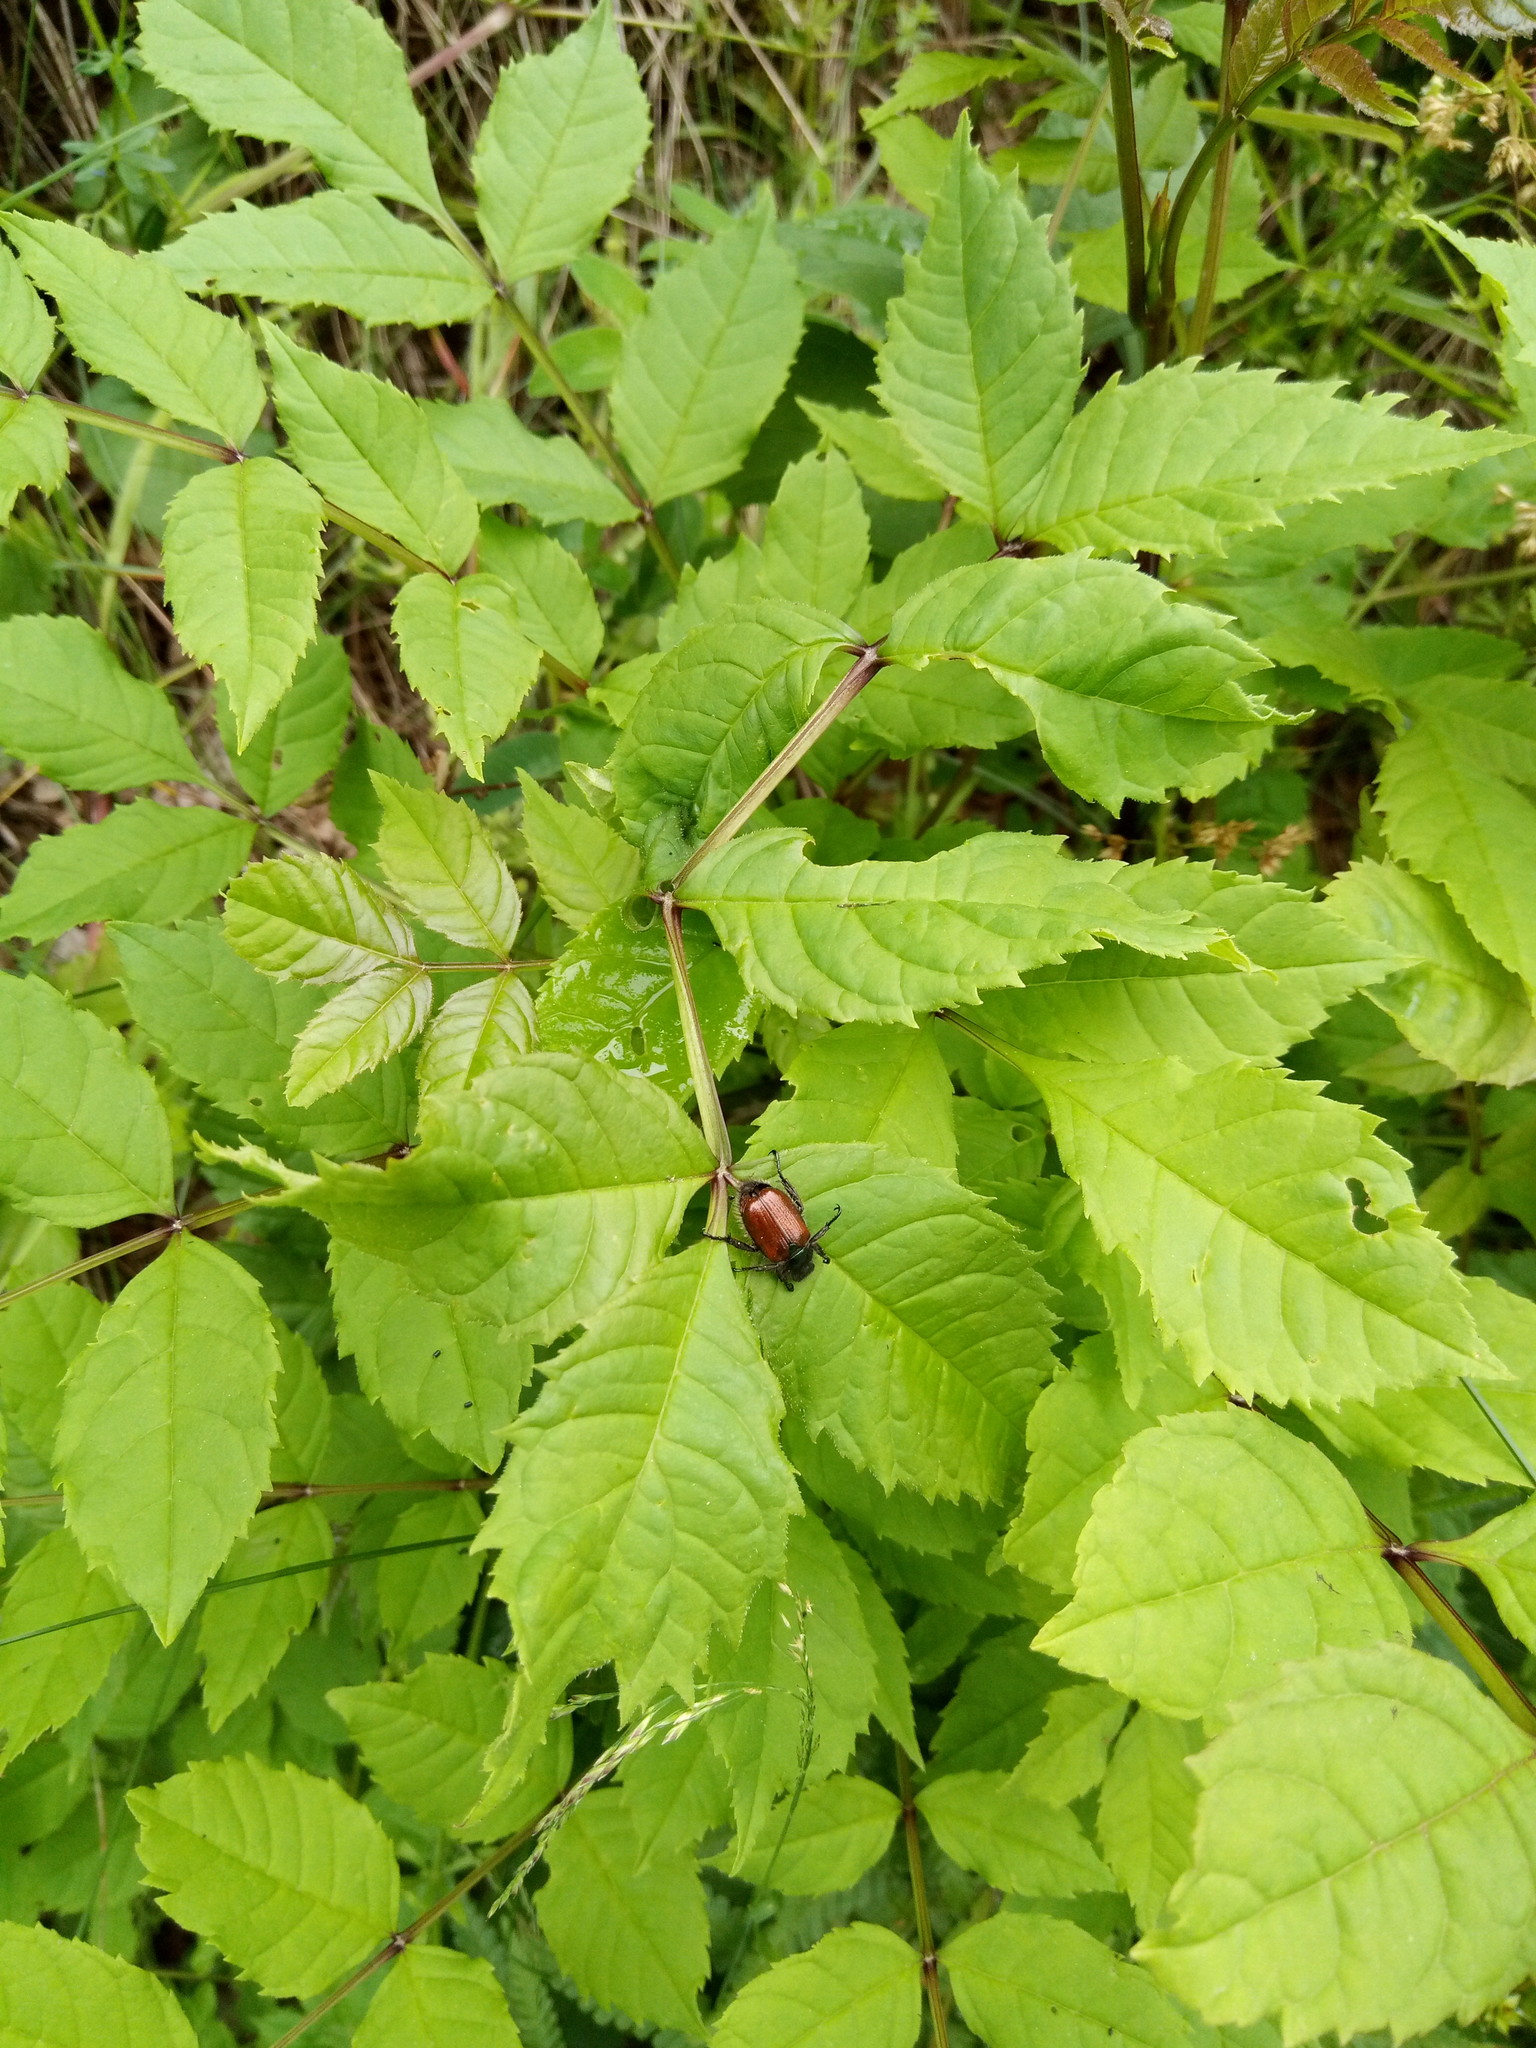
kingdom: Animalia
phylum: Arthropoda
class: Insecta
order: Coleoptera
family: Scarabaeidae
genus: Phyllopertha
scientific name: Phyllopertha horticola
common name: Garden chafer
